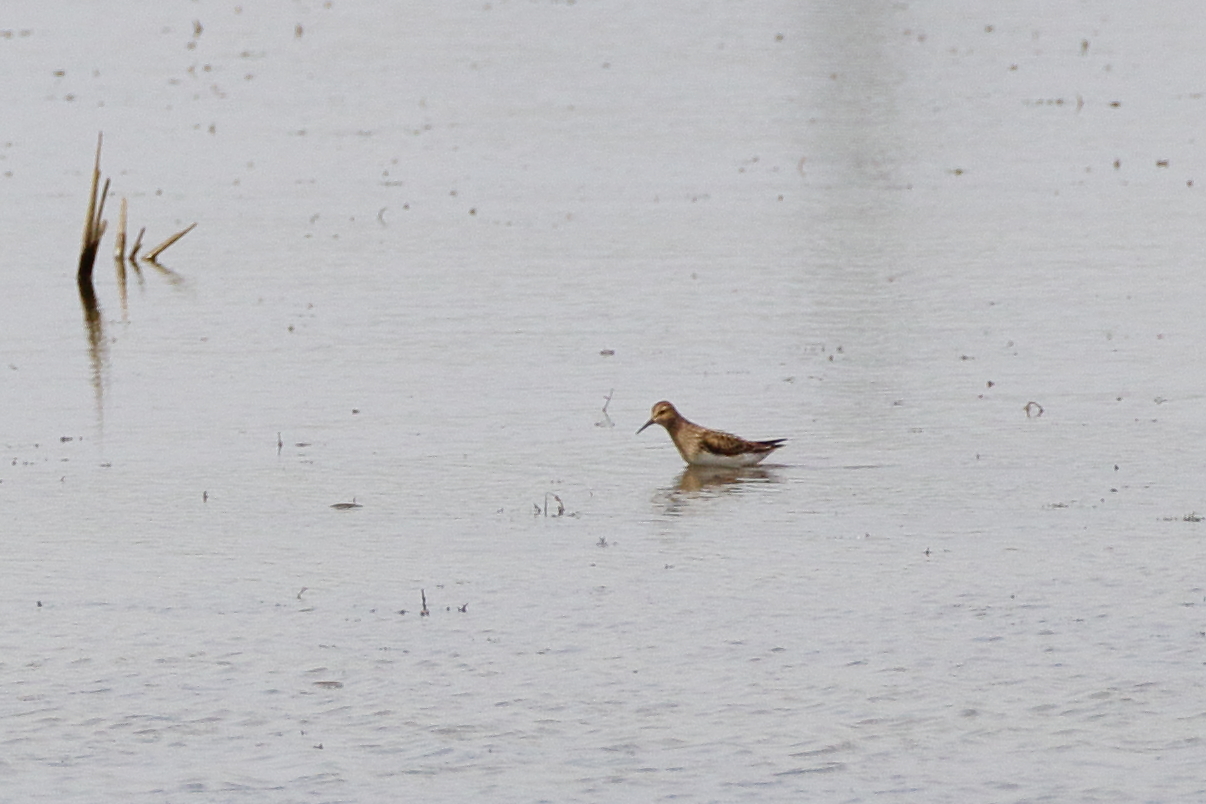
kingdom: Animalia
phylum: Chordata
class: Aves
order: Charadriiformes
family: Scolopacidae
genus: Calidris
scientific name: Calidris melanotos
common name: Pectoral sandpiper
